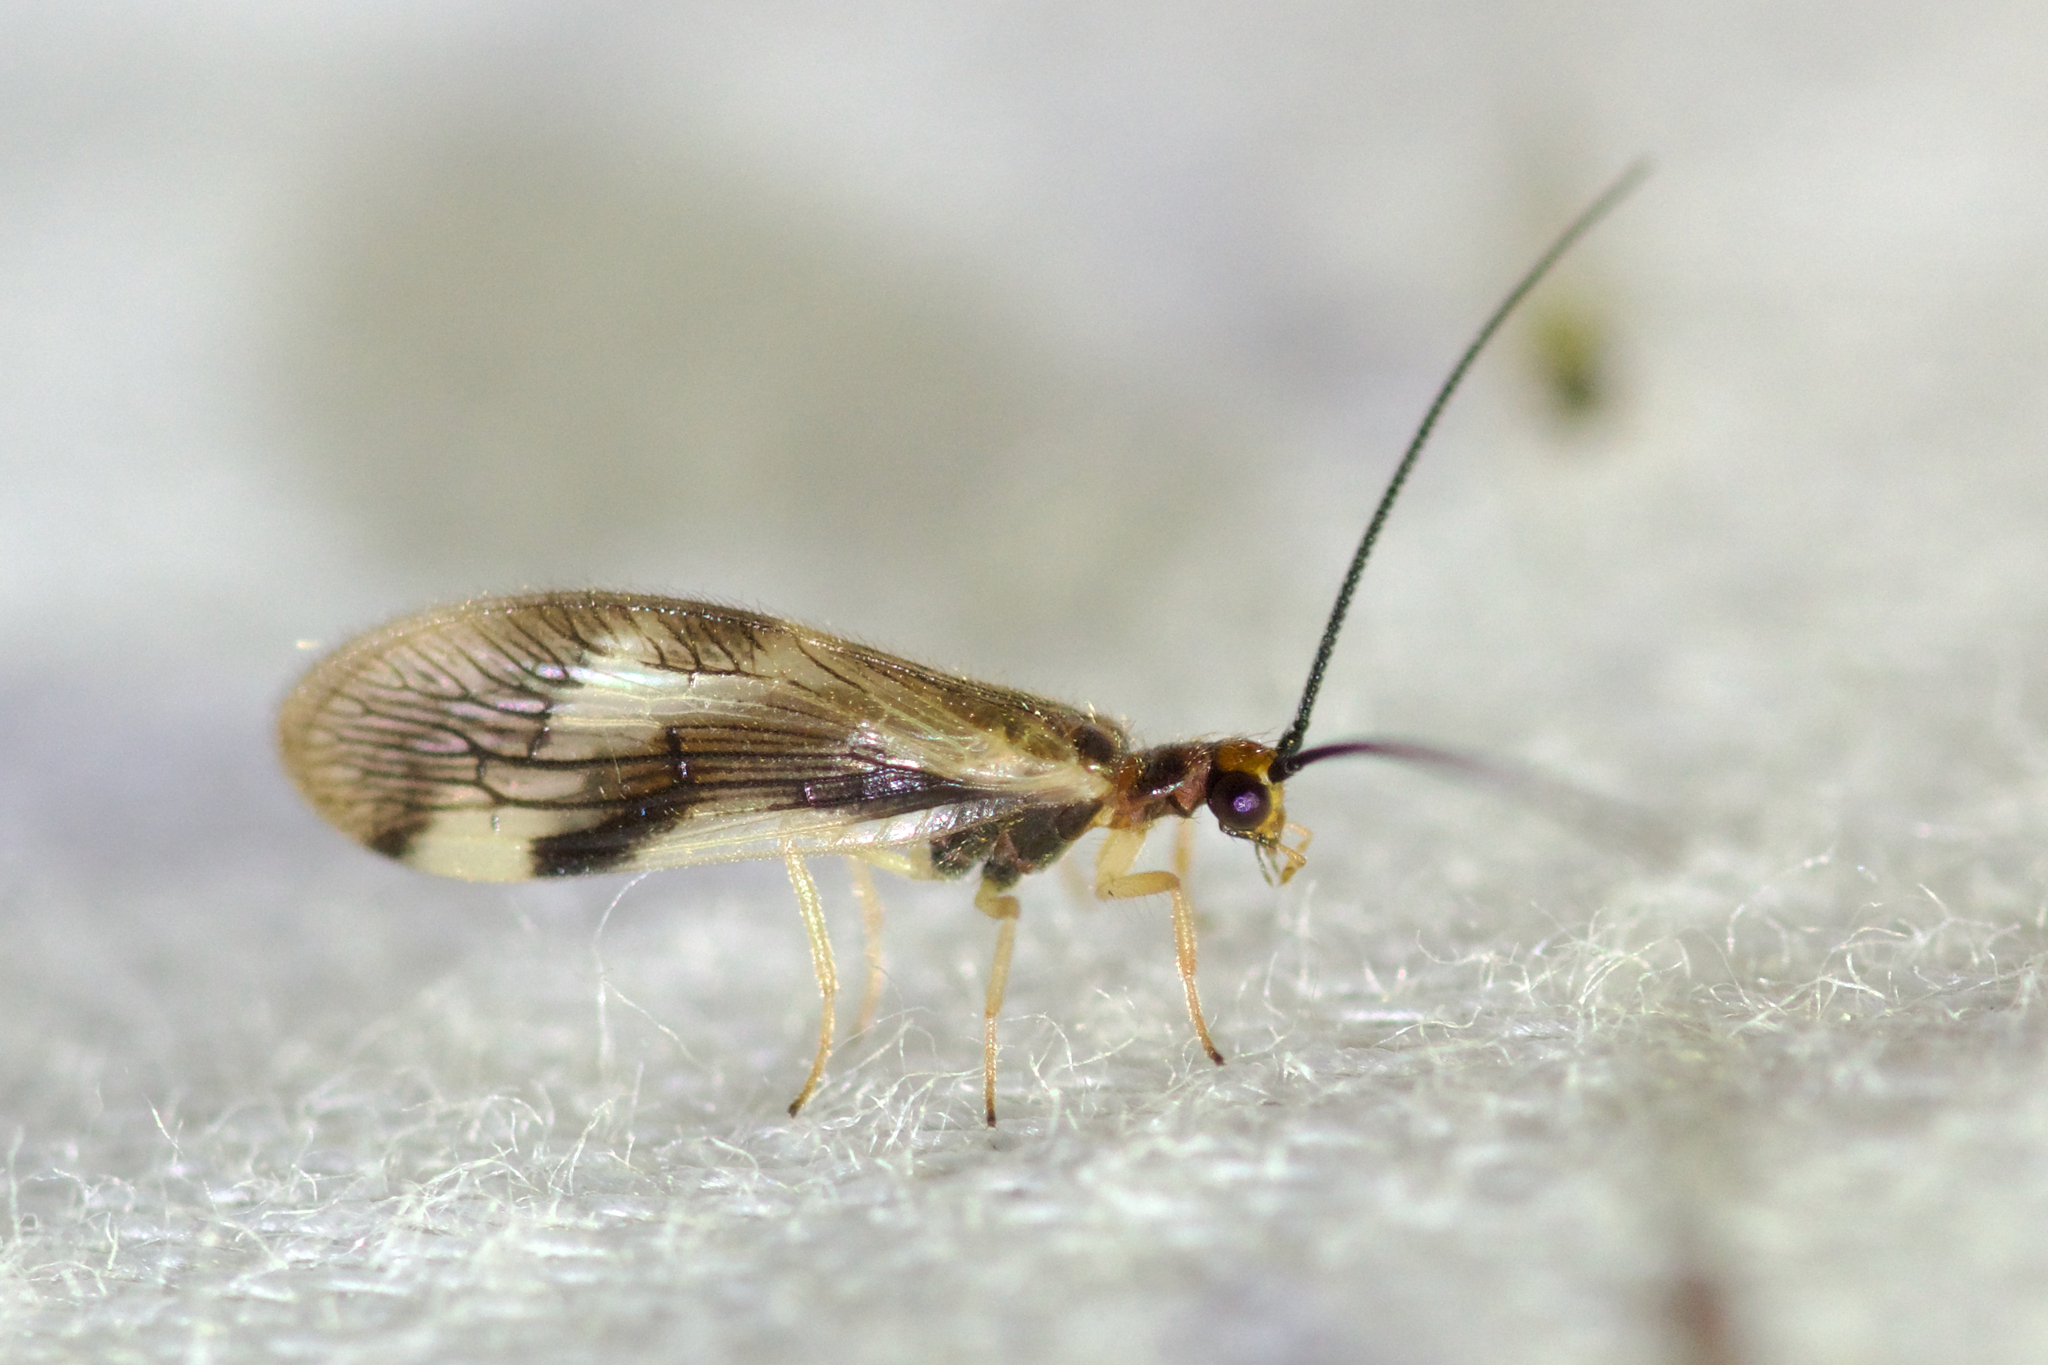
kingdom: Animalia
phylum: Arthropoda
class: Insecta
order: Neuroptera
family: Sisyridae
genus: Climacia
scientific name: Climacia areolaris
